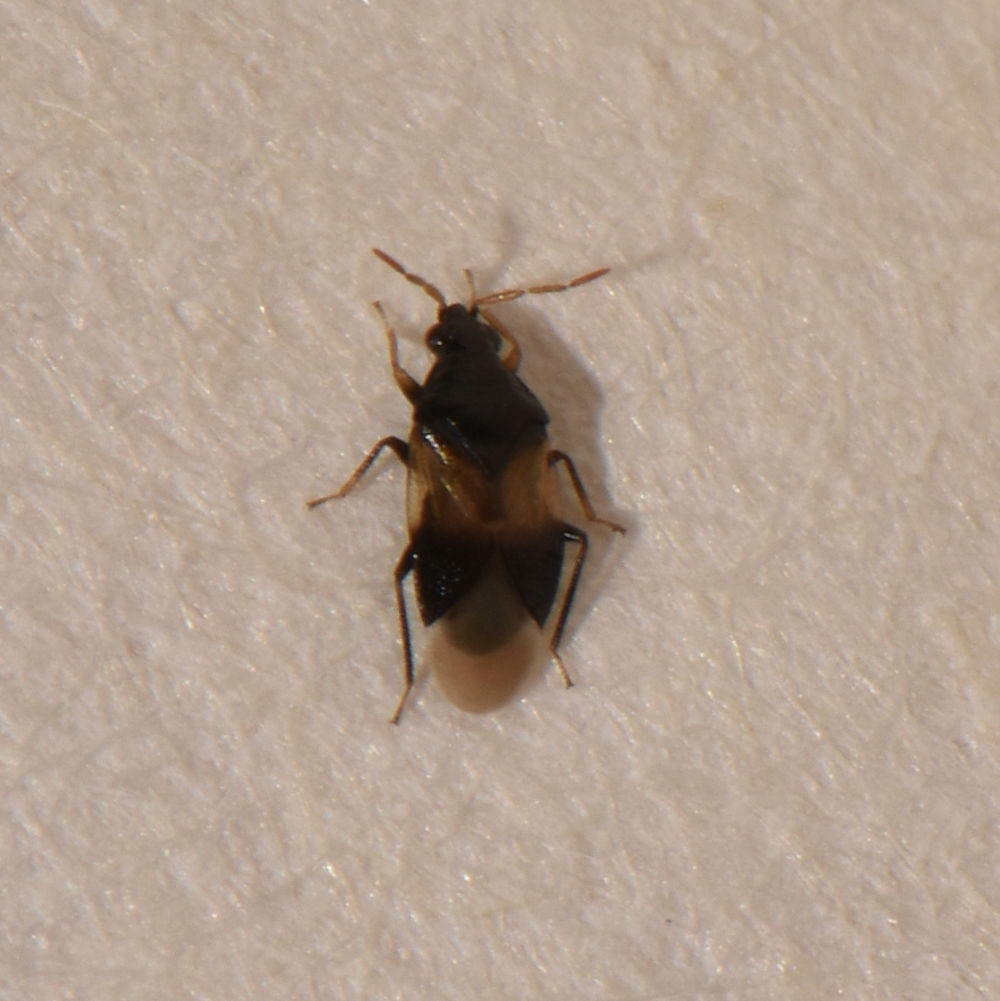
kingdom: Animalia
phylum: Arthropoda
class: Insecta
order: Hemiptera
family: Anthocoridae
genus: Orius
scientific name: Orius insidiosus
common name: Insidious flower bug
